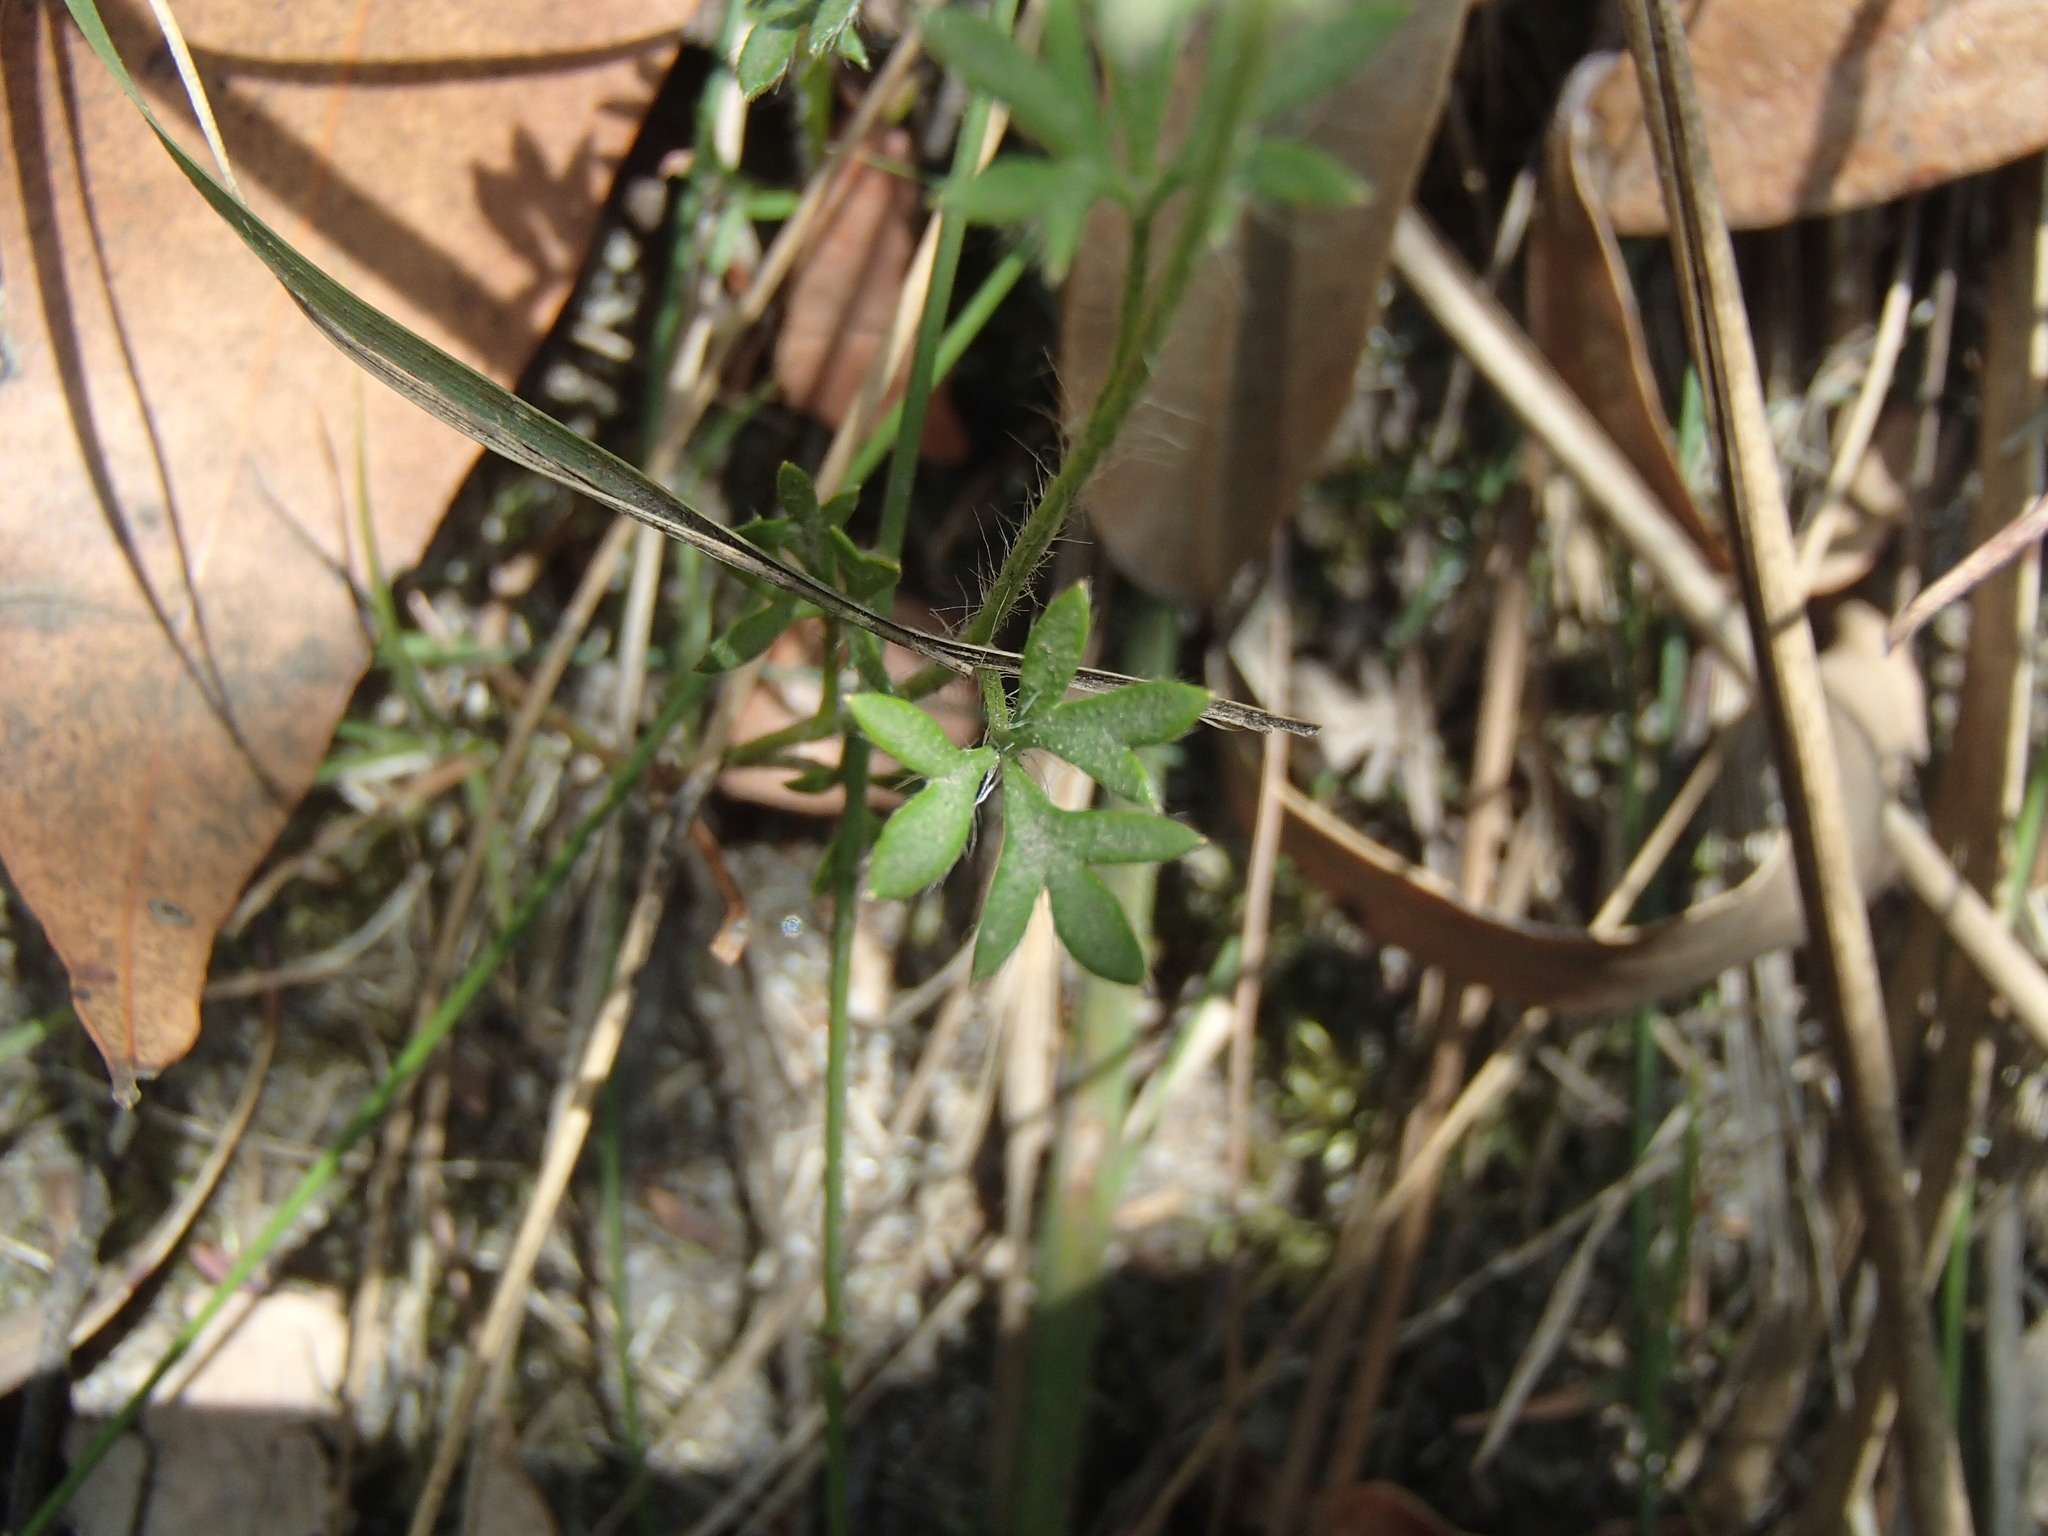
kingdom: Plantae
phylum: Tracheophyta
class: Magnoliopsida
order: Apiales
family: Apiaceae
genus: Actinotus
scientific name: Actinotus minor
